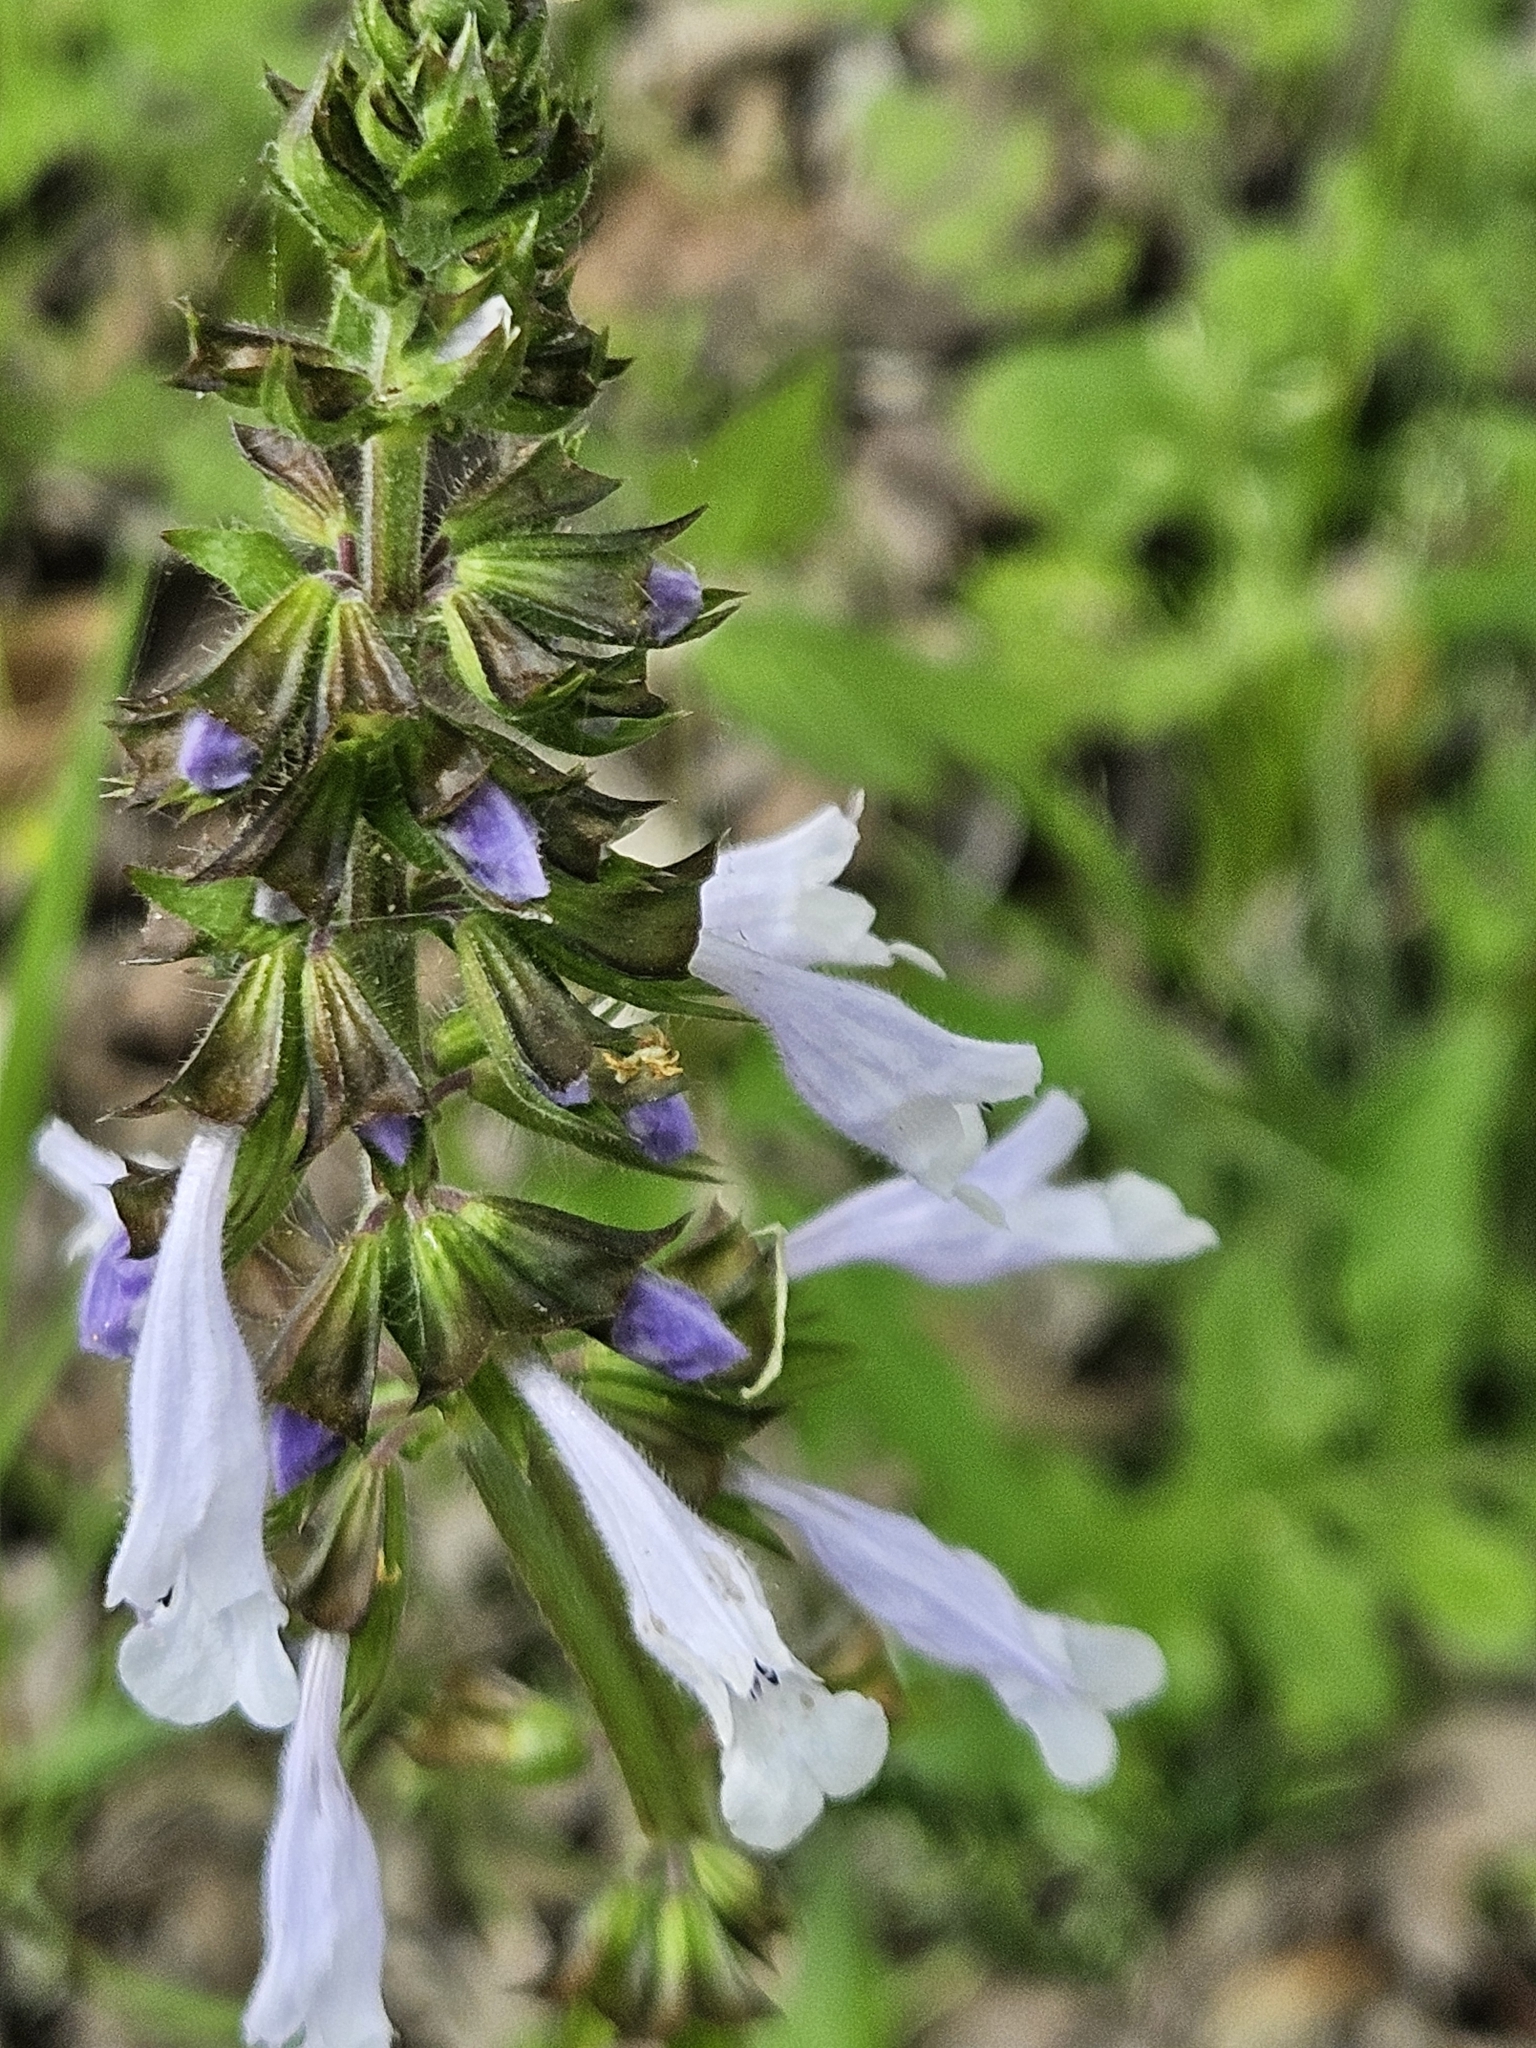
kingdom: Plantae
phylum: Tracheophyta
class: Magnoliopsida
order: Lamiales
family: Lamiaceae
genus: Salvia
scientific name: Salvia lyrata
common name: Cancerweed
